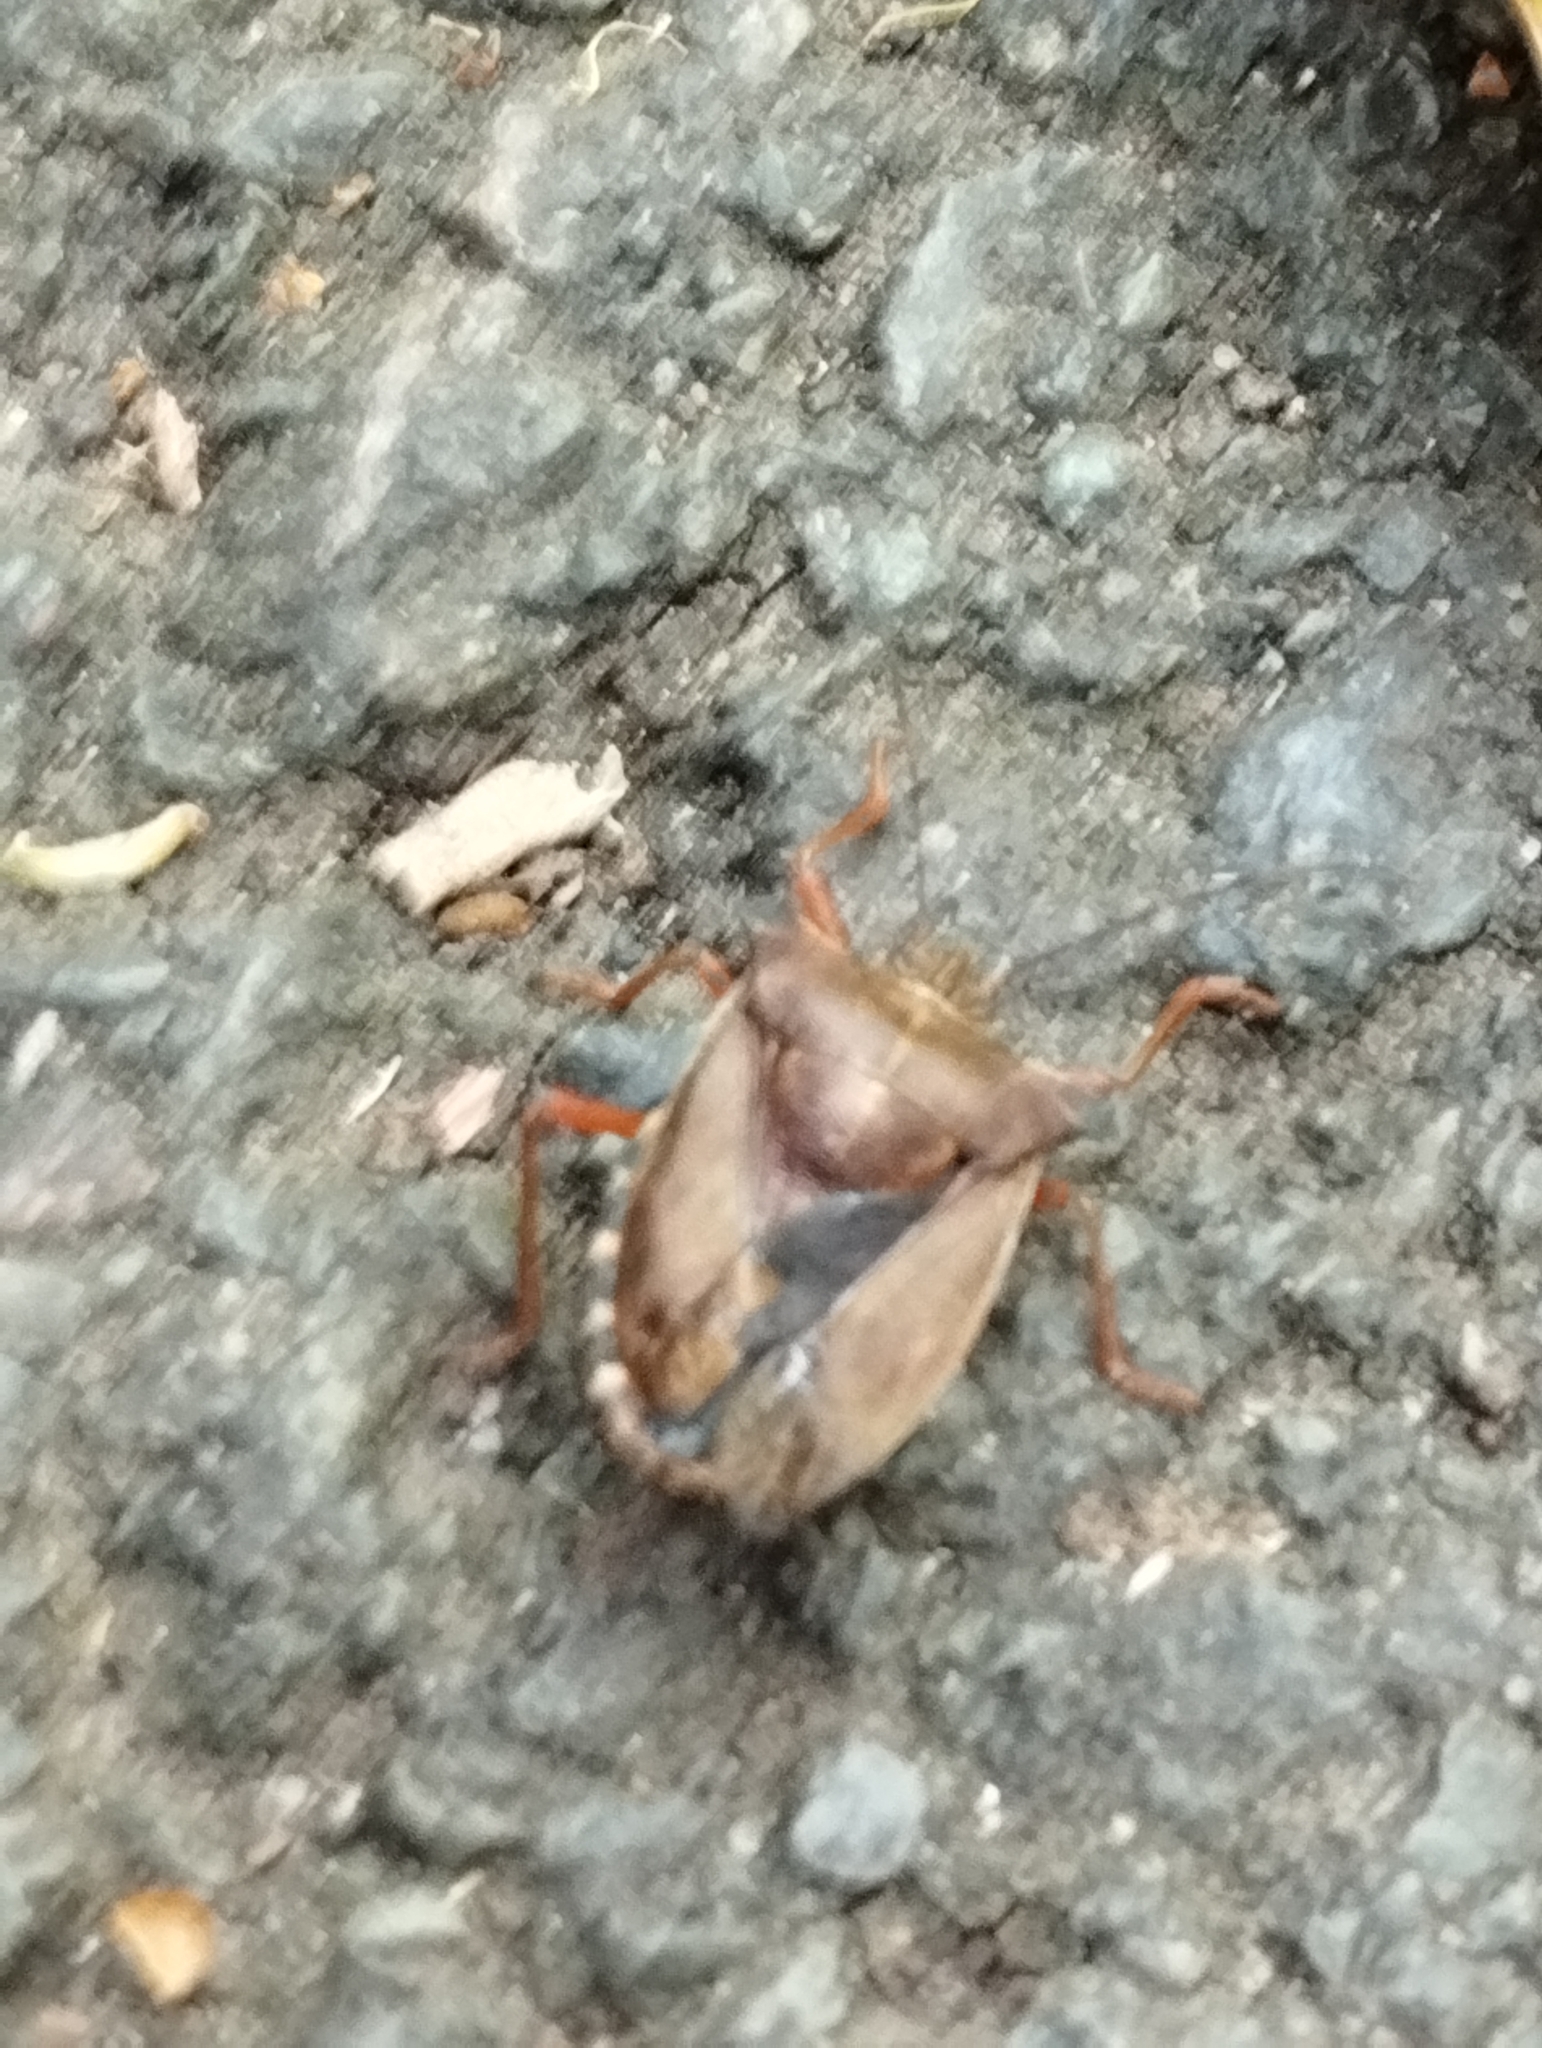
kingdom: Animalia
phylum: Arthropoda
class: Insecta
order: Hemiptera
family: Pentatomidae
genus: Pentatoma
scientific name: Pentatoma rufipes
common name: Forest bug
